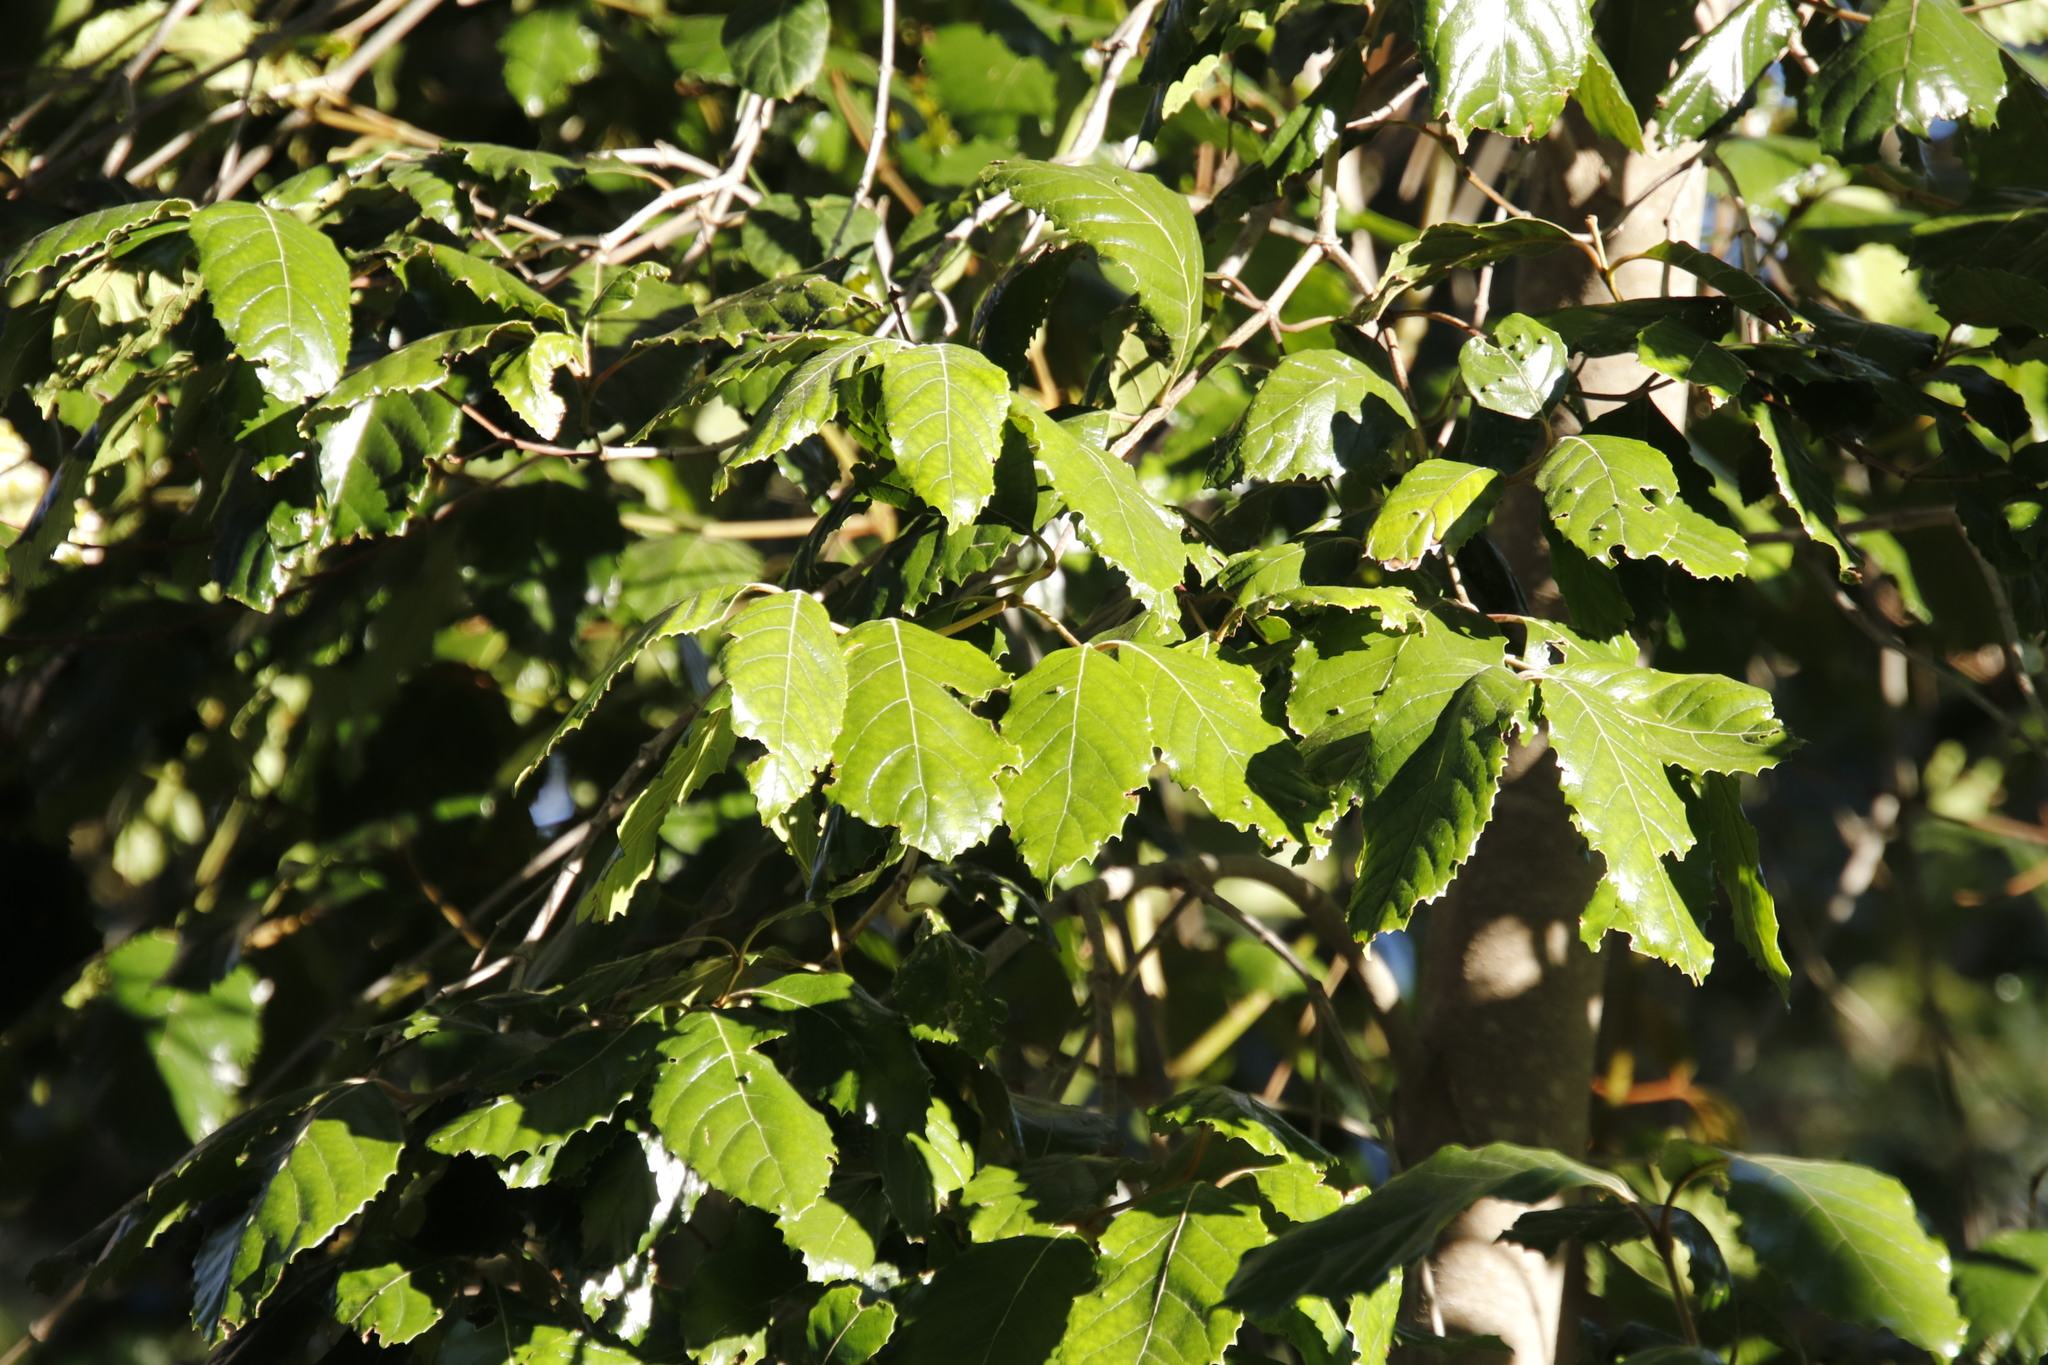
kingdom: Plantae
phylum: Tracheophyta
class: Magnoliopsida
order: Cornales
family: Curtisiaceae
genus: Curtisia
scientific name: Curtisia dentata
